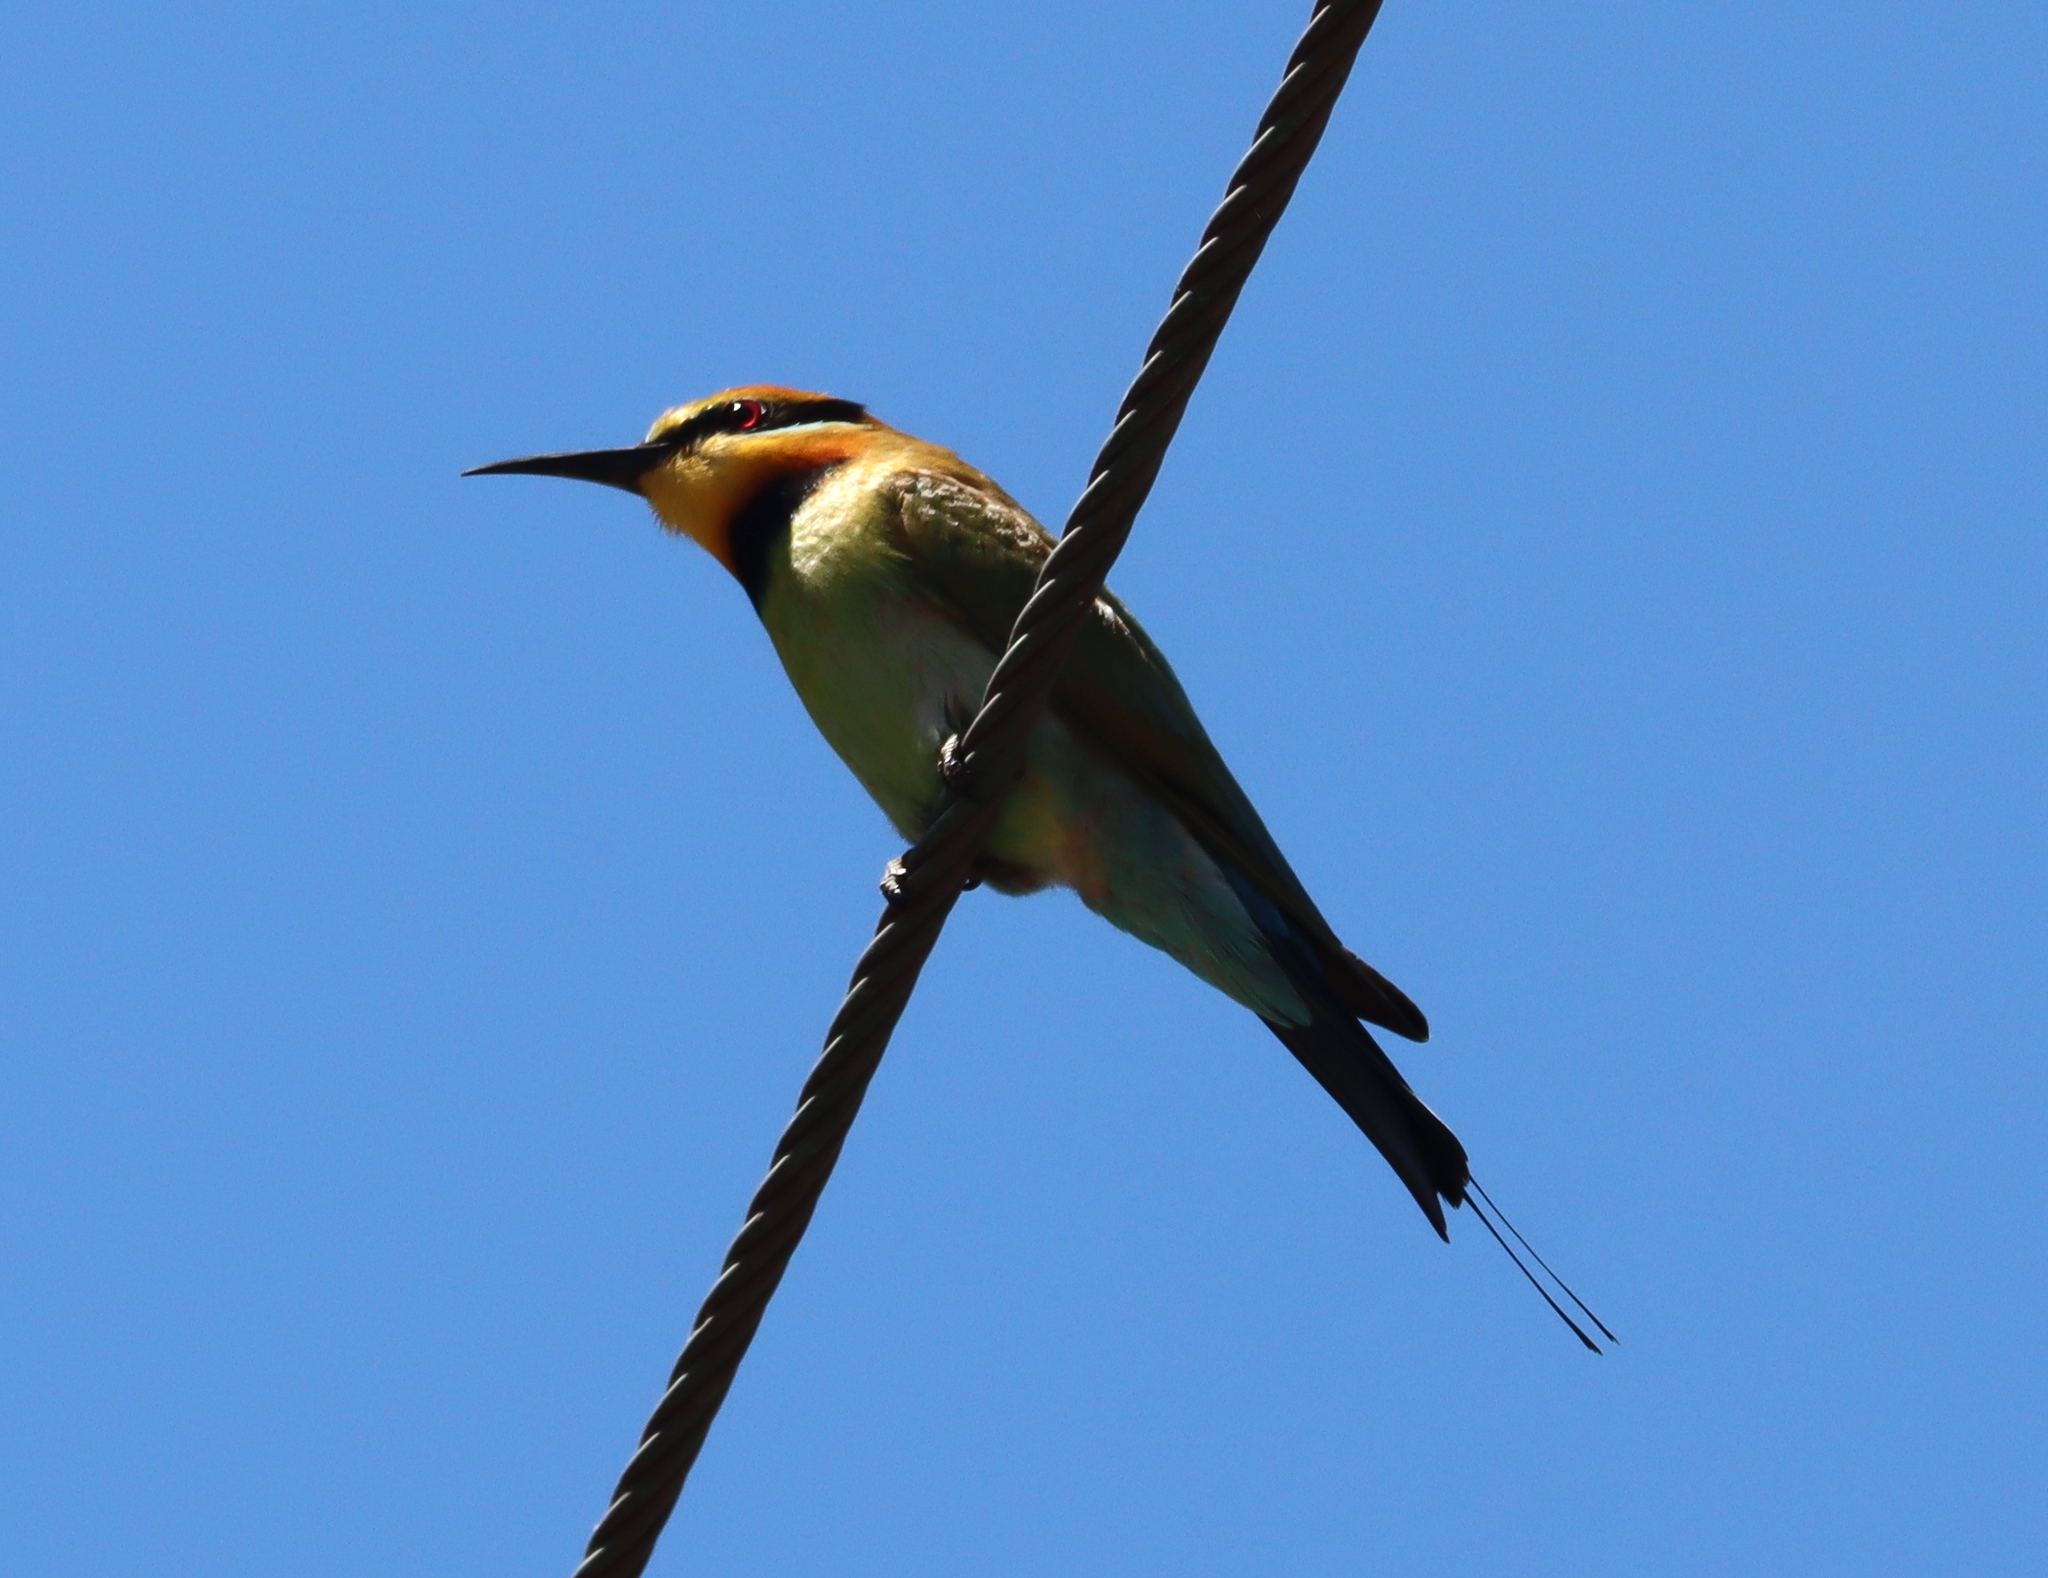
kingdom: Animalia
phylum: Chordata
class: Aves
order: Coraciiformes
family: Meropidae
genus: Merops
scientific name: Merops ornatus
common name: Rainbow bee-eater
